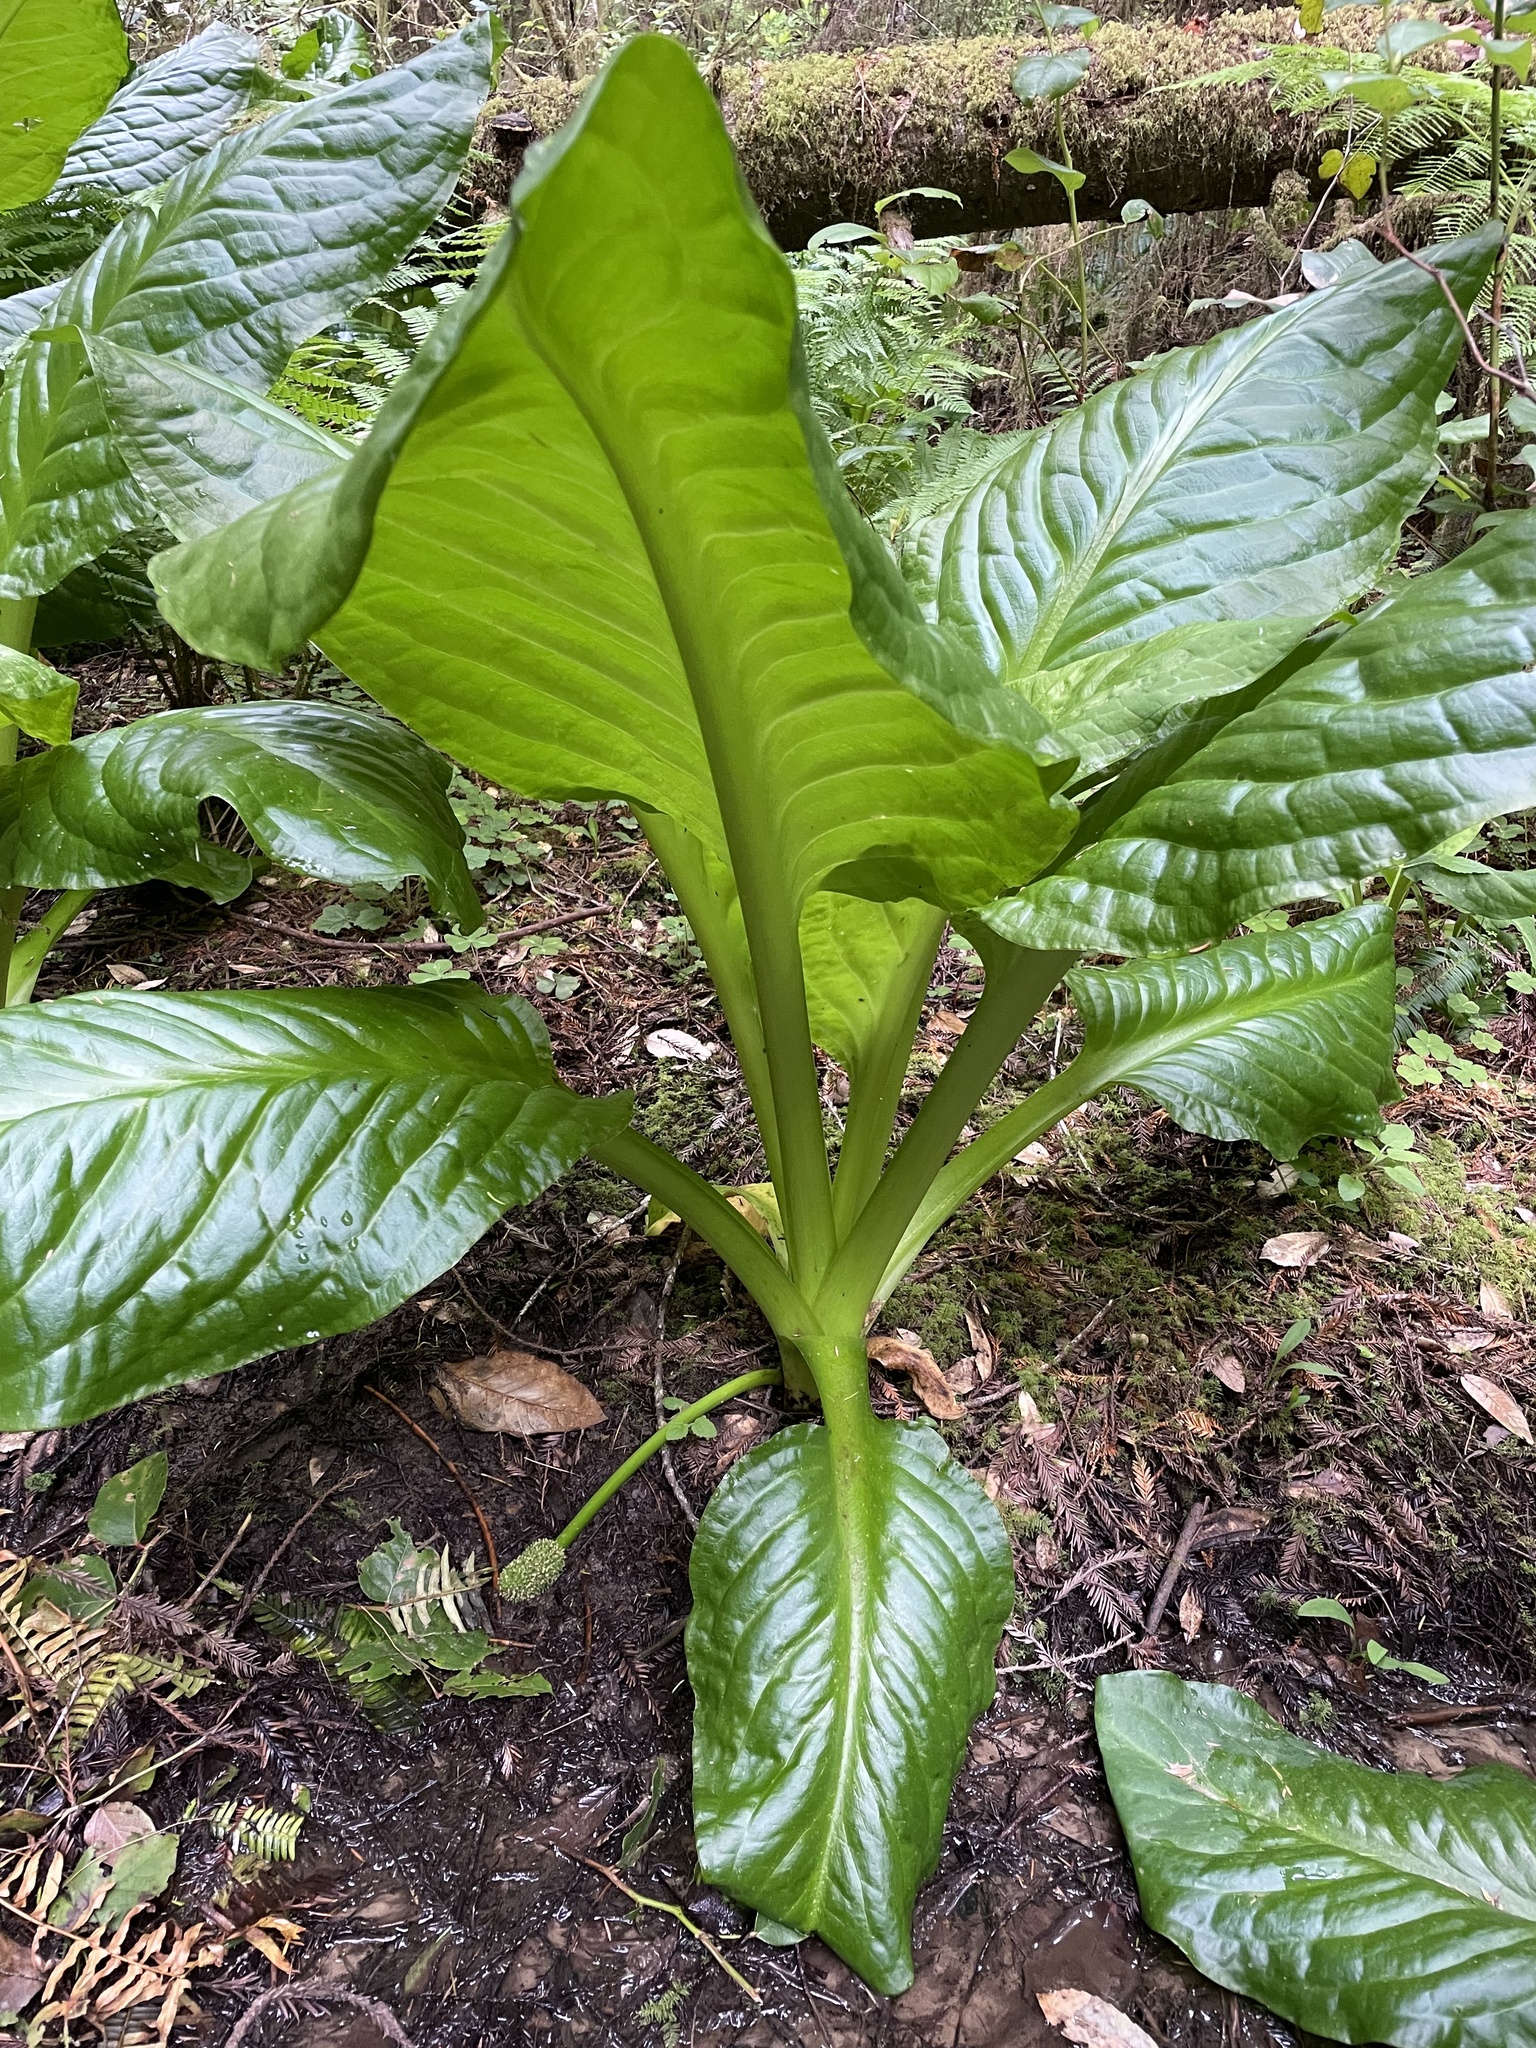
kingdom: Plantae
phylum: Tracheophyta
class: Liliopsida
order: Alismatales
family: Araceae
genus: Lysichiton
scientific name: Lysichiton americanus
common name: American skunk cabbage
